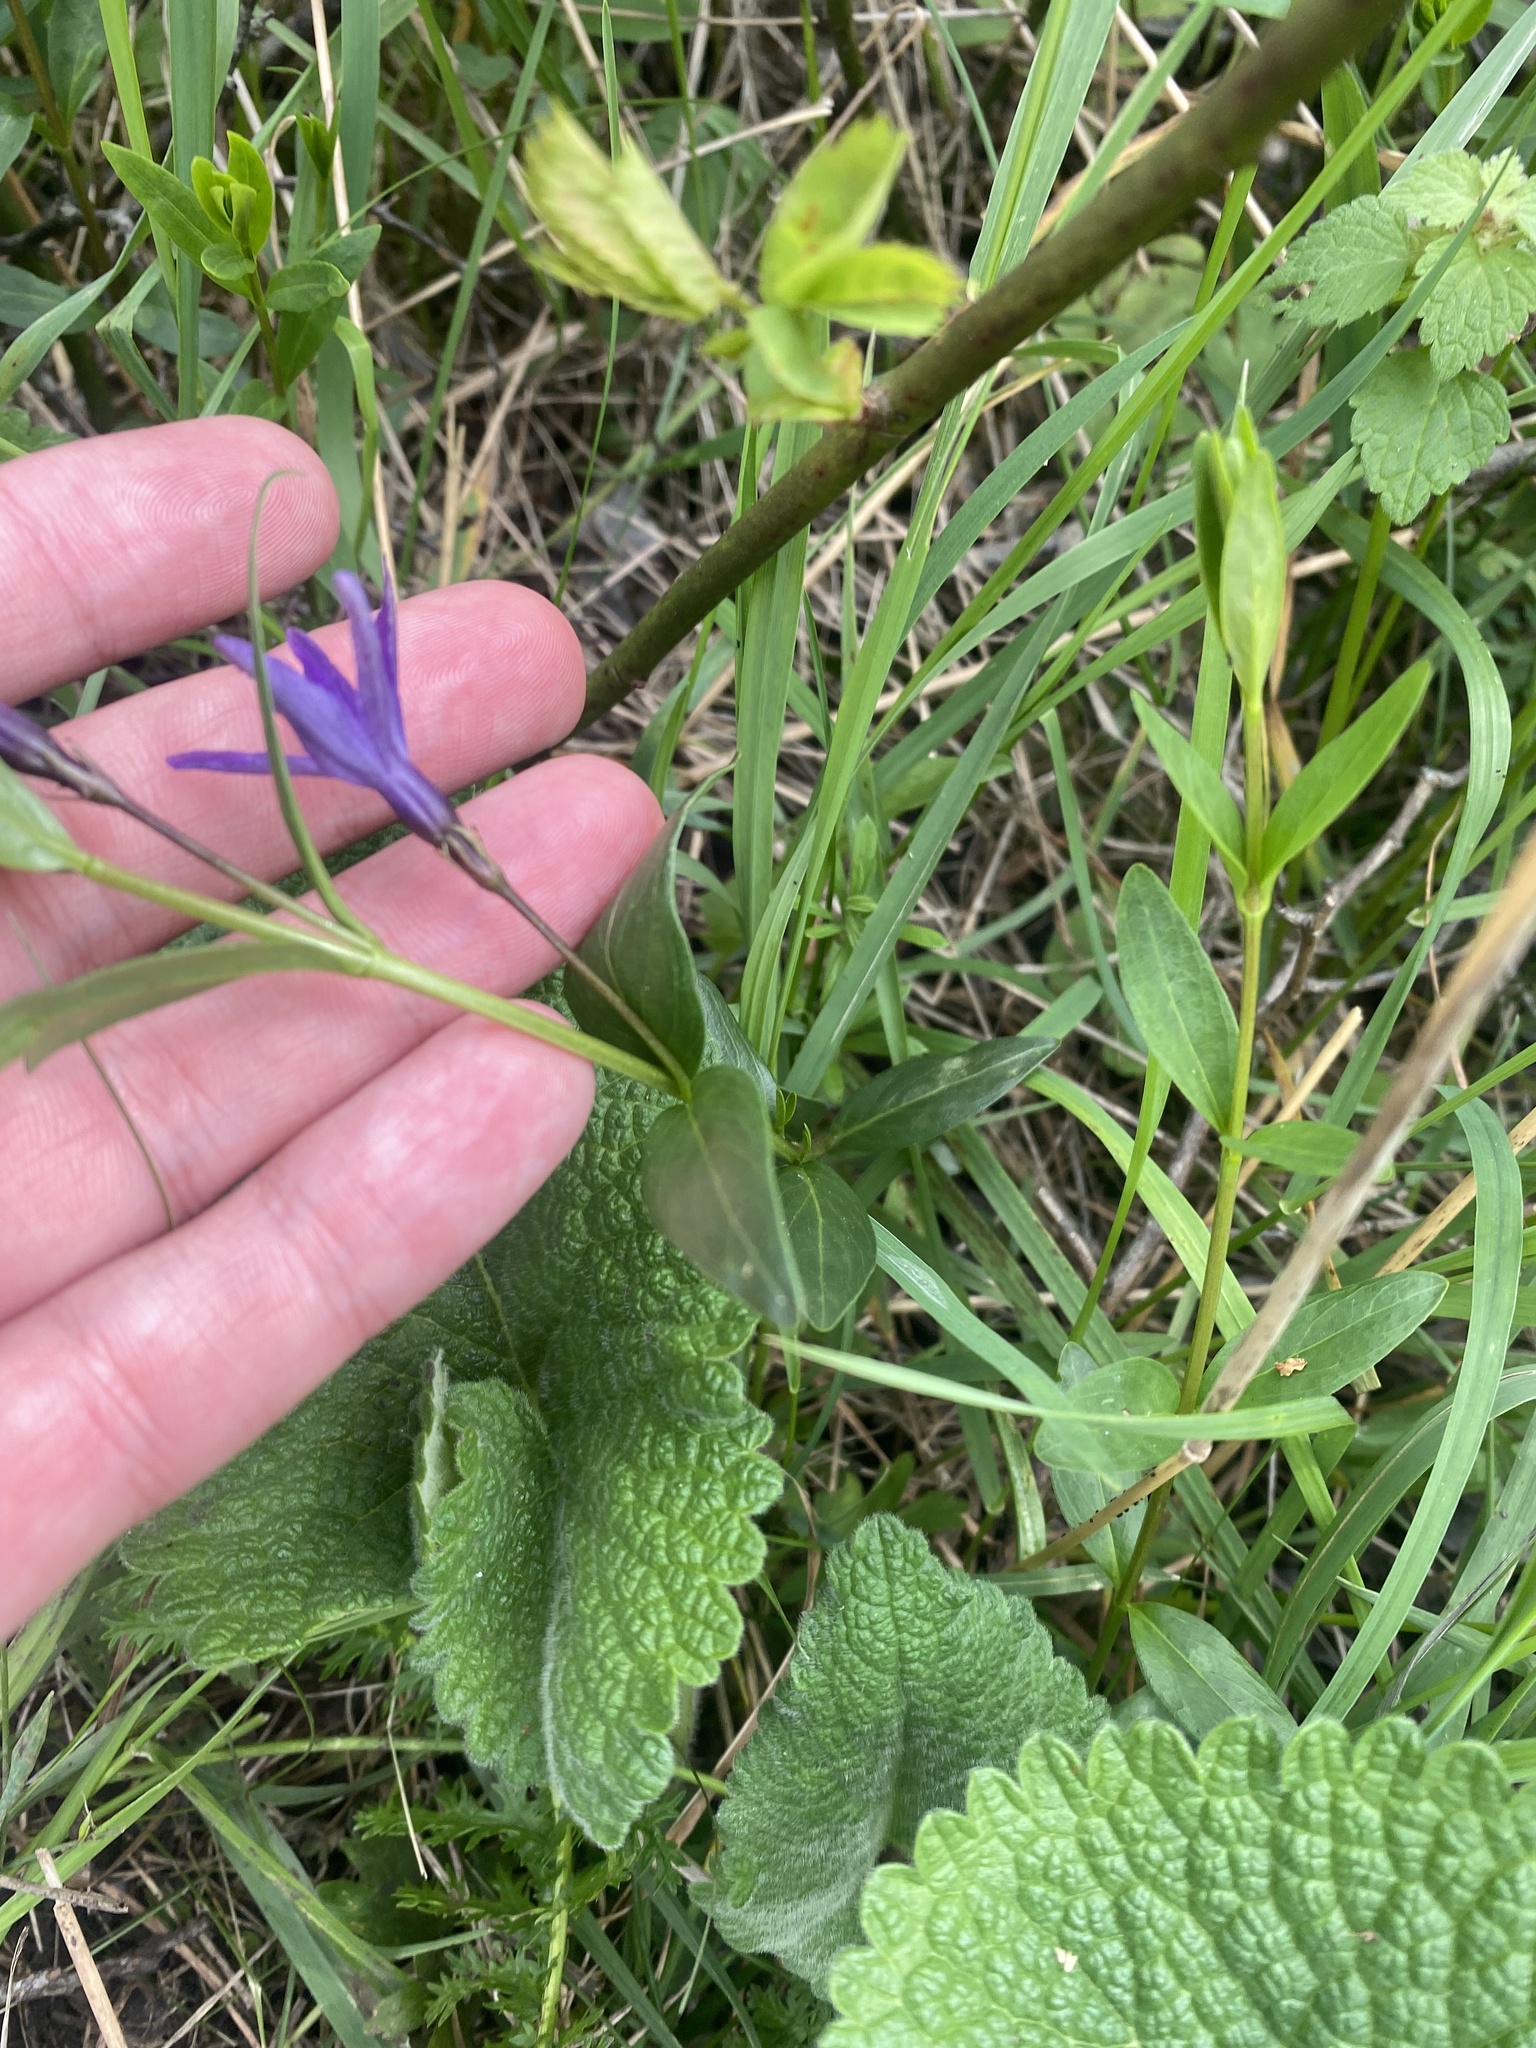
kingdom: Plantae
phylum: Tracheophyta
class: Magnoliopsida
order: Gentianales
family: Apocynaceae
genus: Vinca
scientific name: Vinca herbacea
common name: Herbaceous periwinkle
